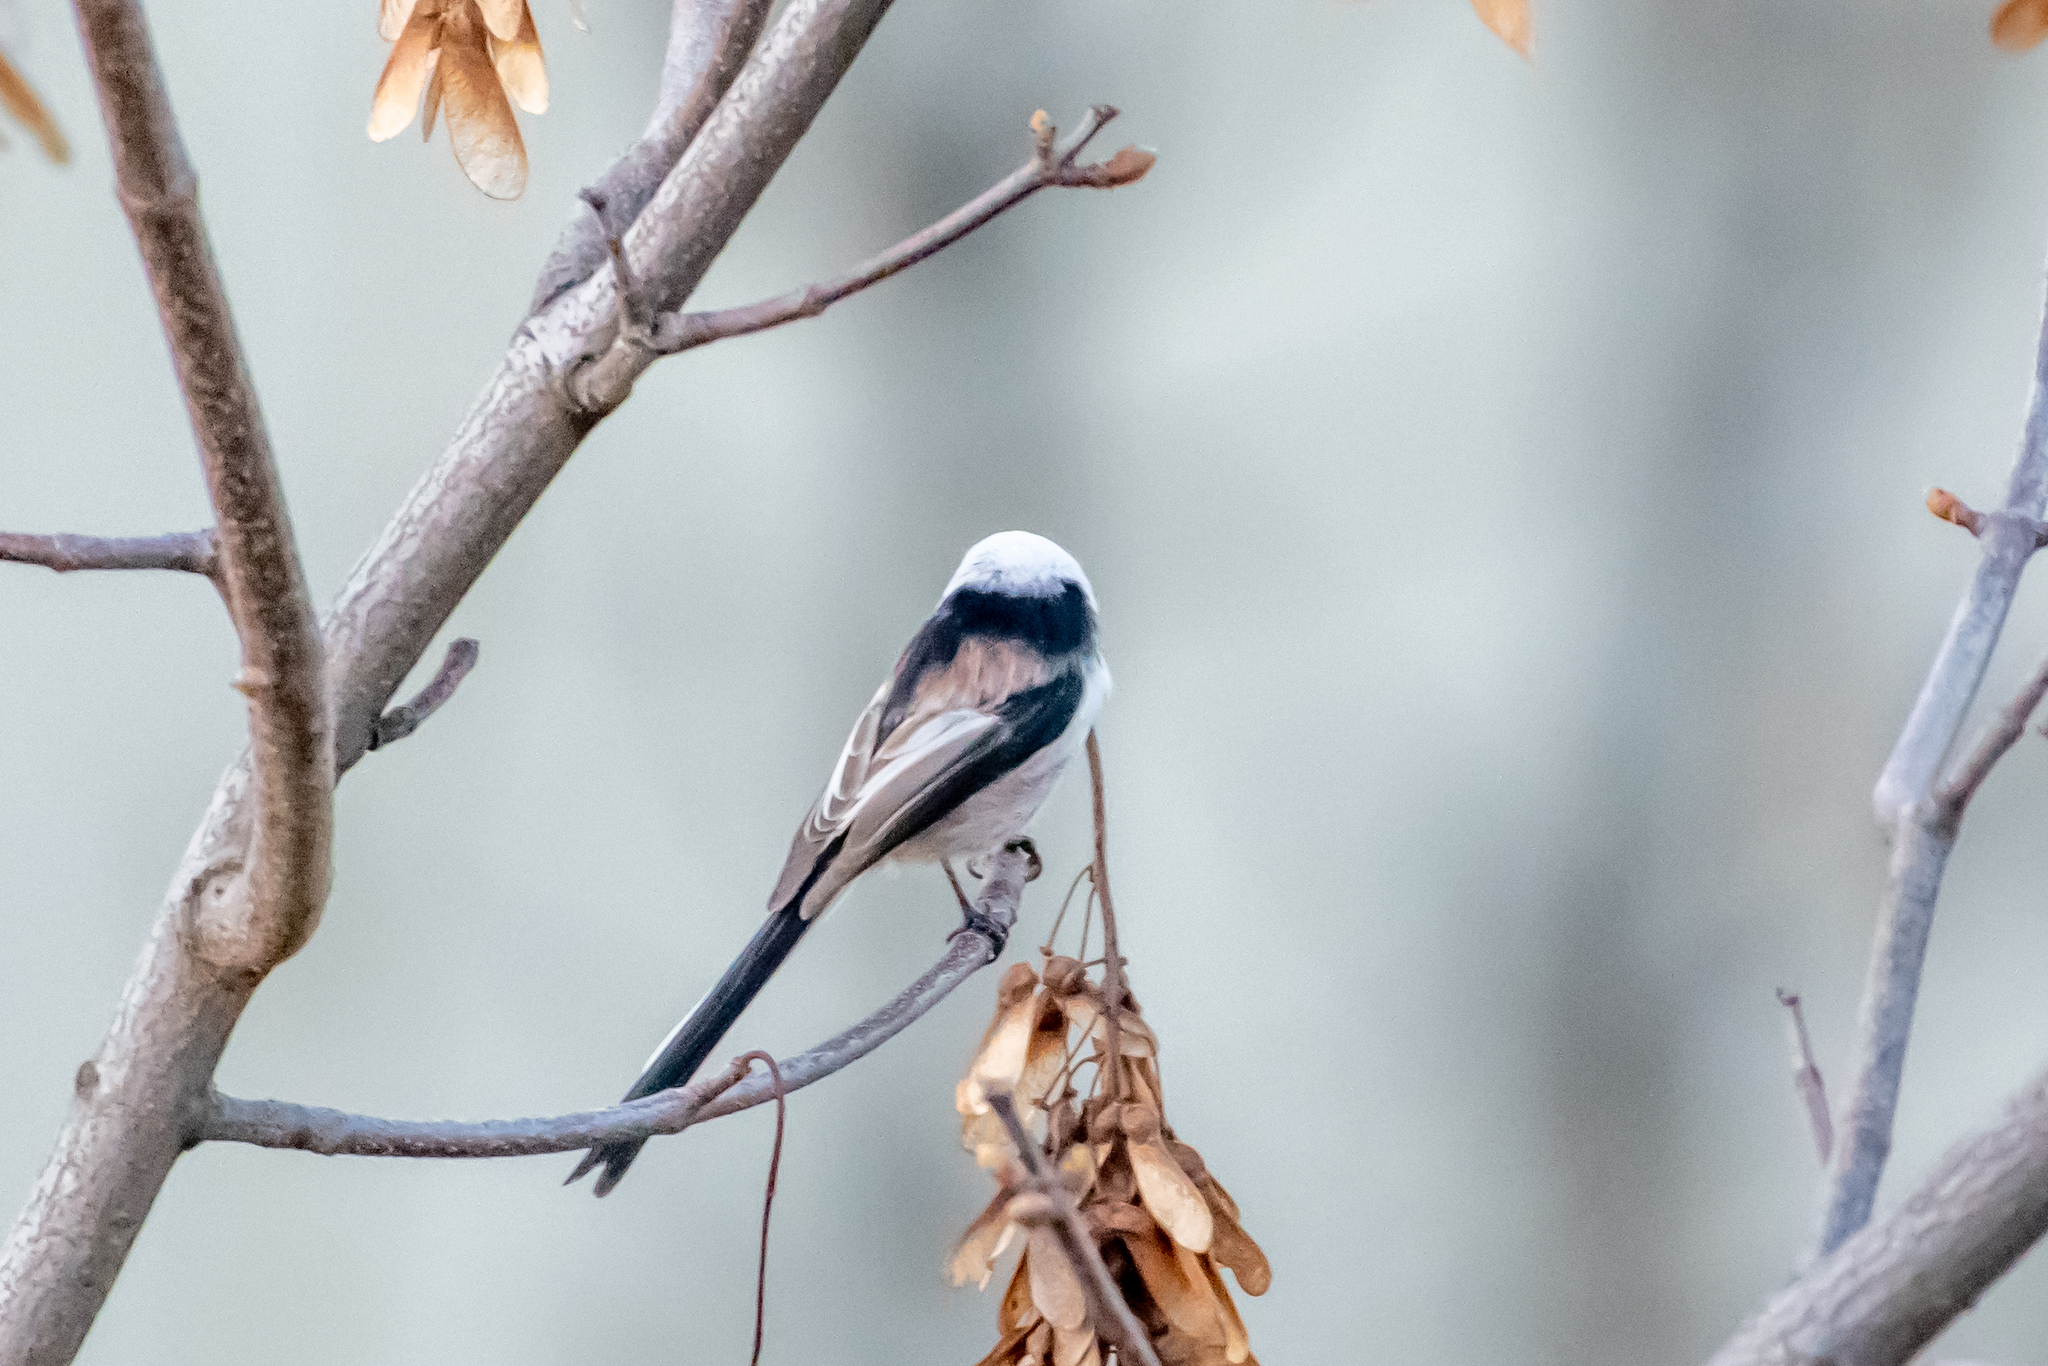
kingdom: Animalia
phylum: Chordata
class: Aves
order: Passeriformes
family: Aegithalidae
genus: Aegithalos
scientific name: Aegithalos caudatus
